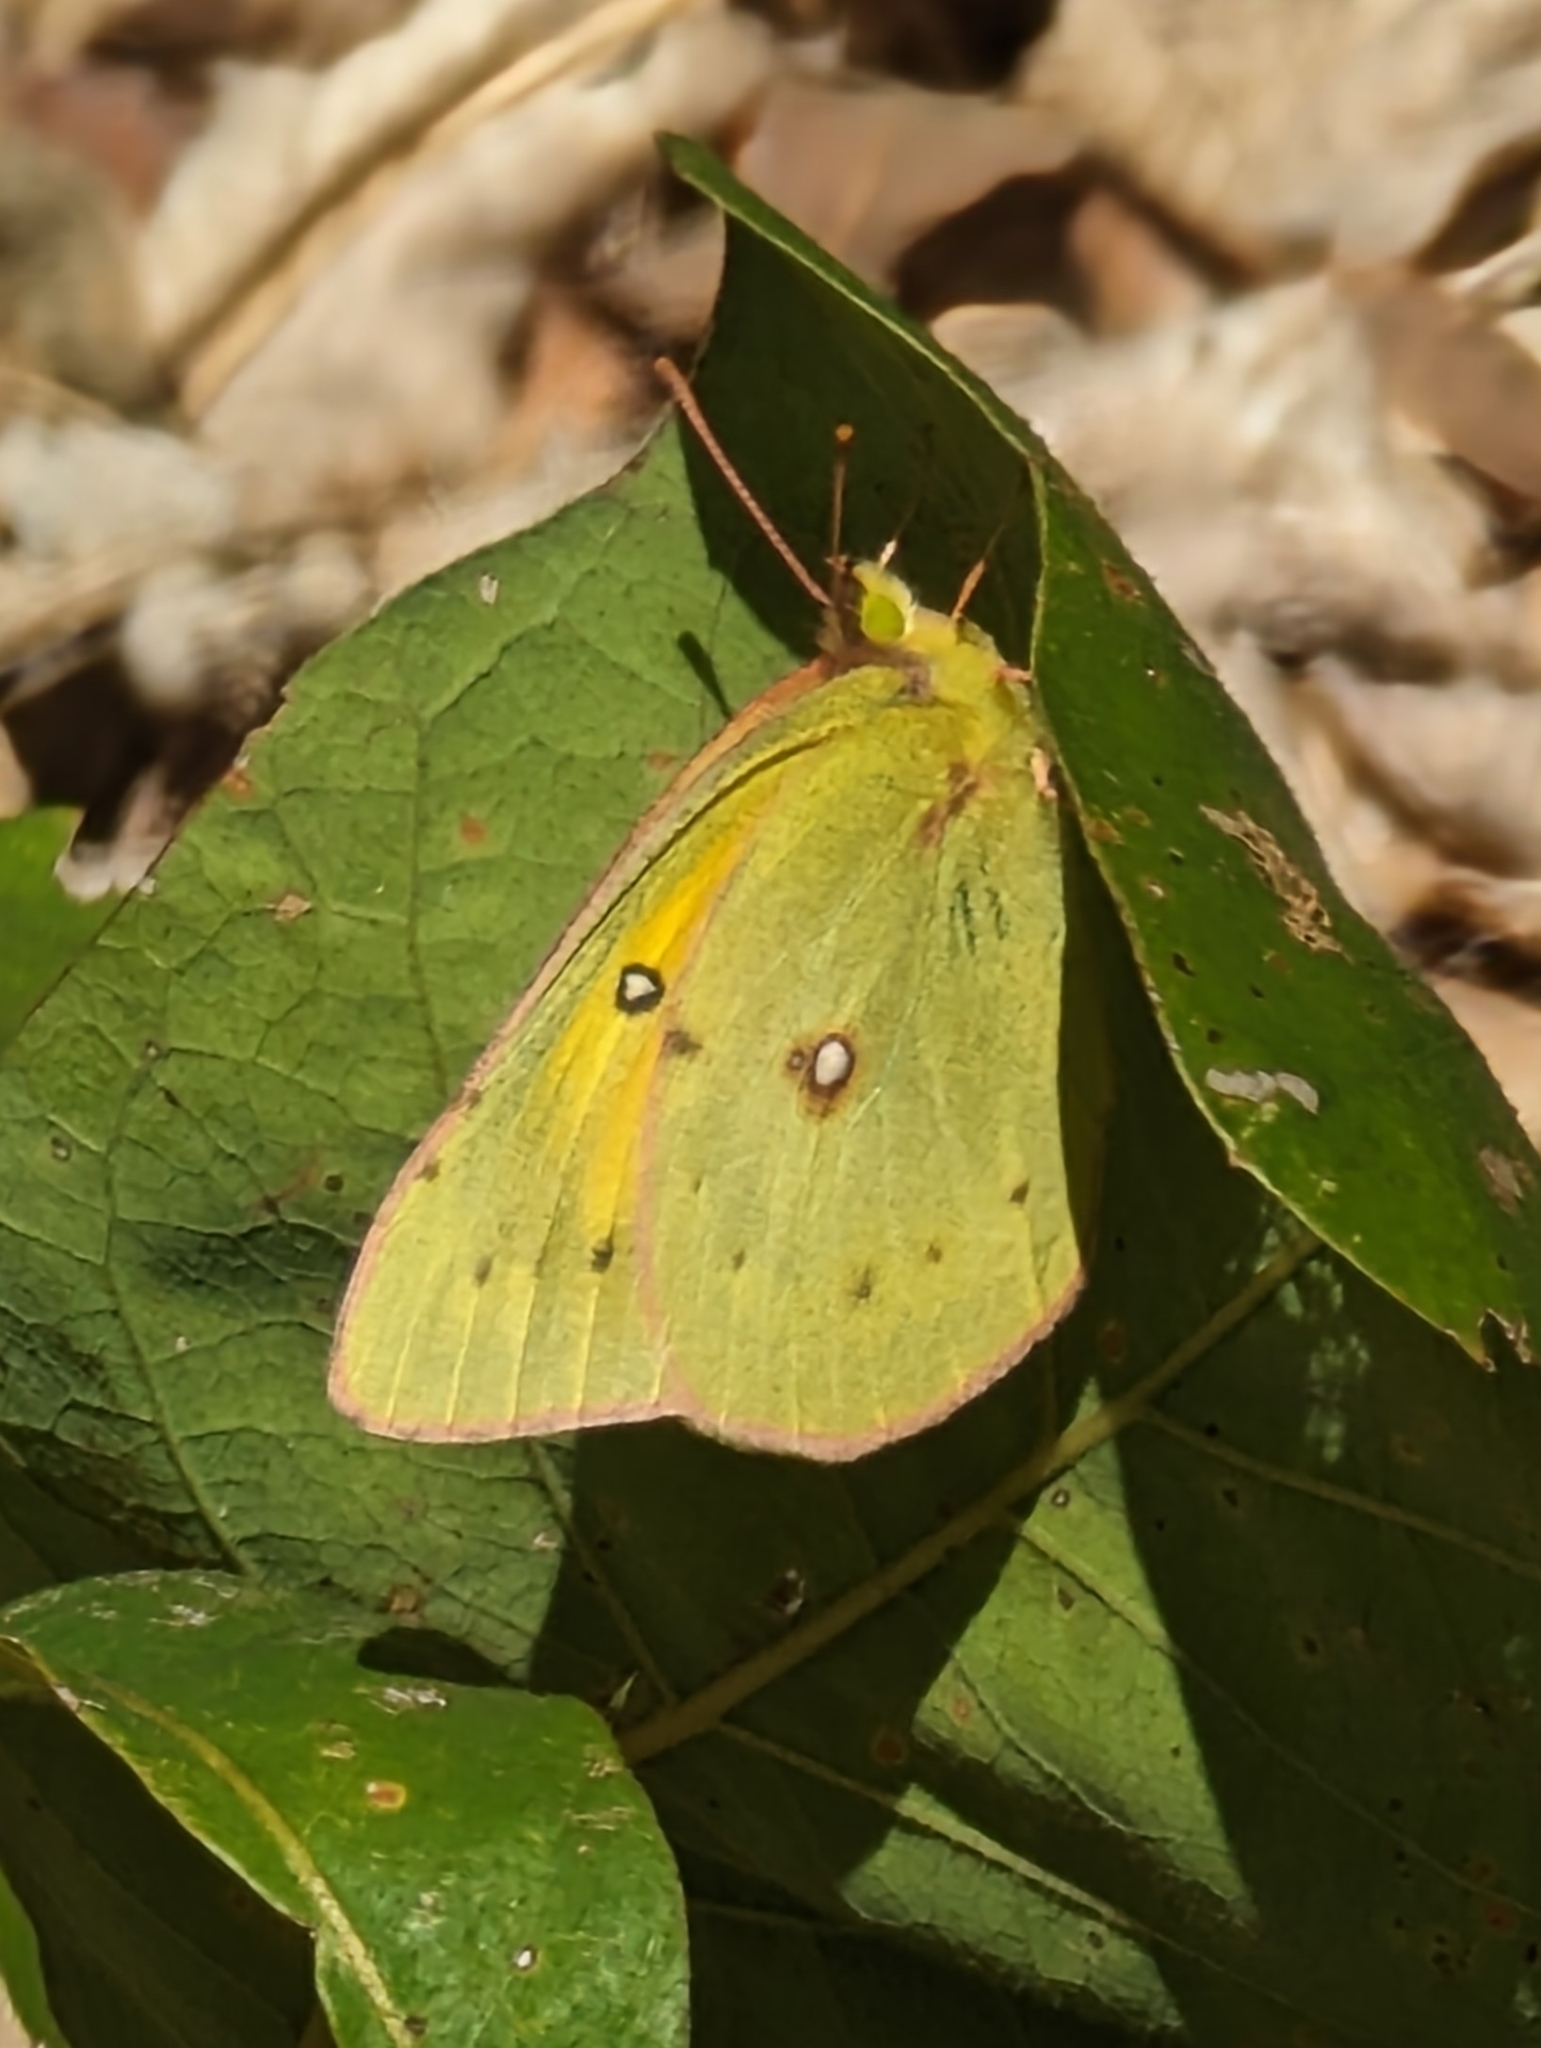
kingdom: Animalia
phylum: Arthropoda
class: Insecta
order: Lepidoptera
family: Pieridae
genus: Colias
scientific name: Colias eurytheme
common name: Alfalfa butterfly
